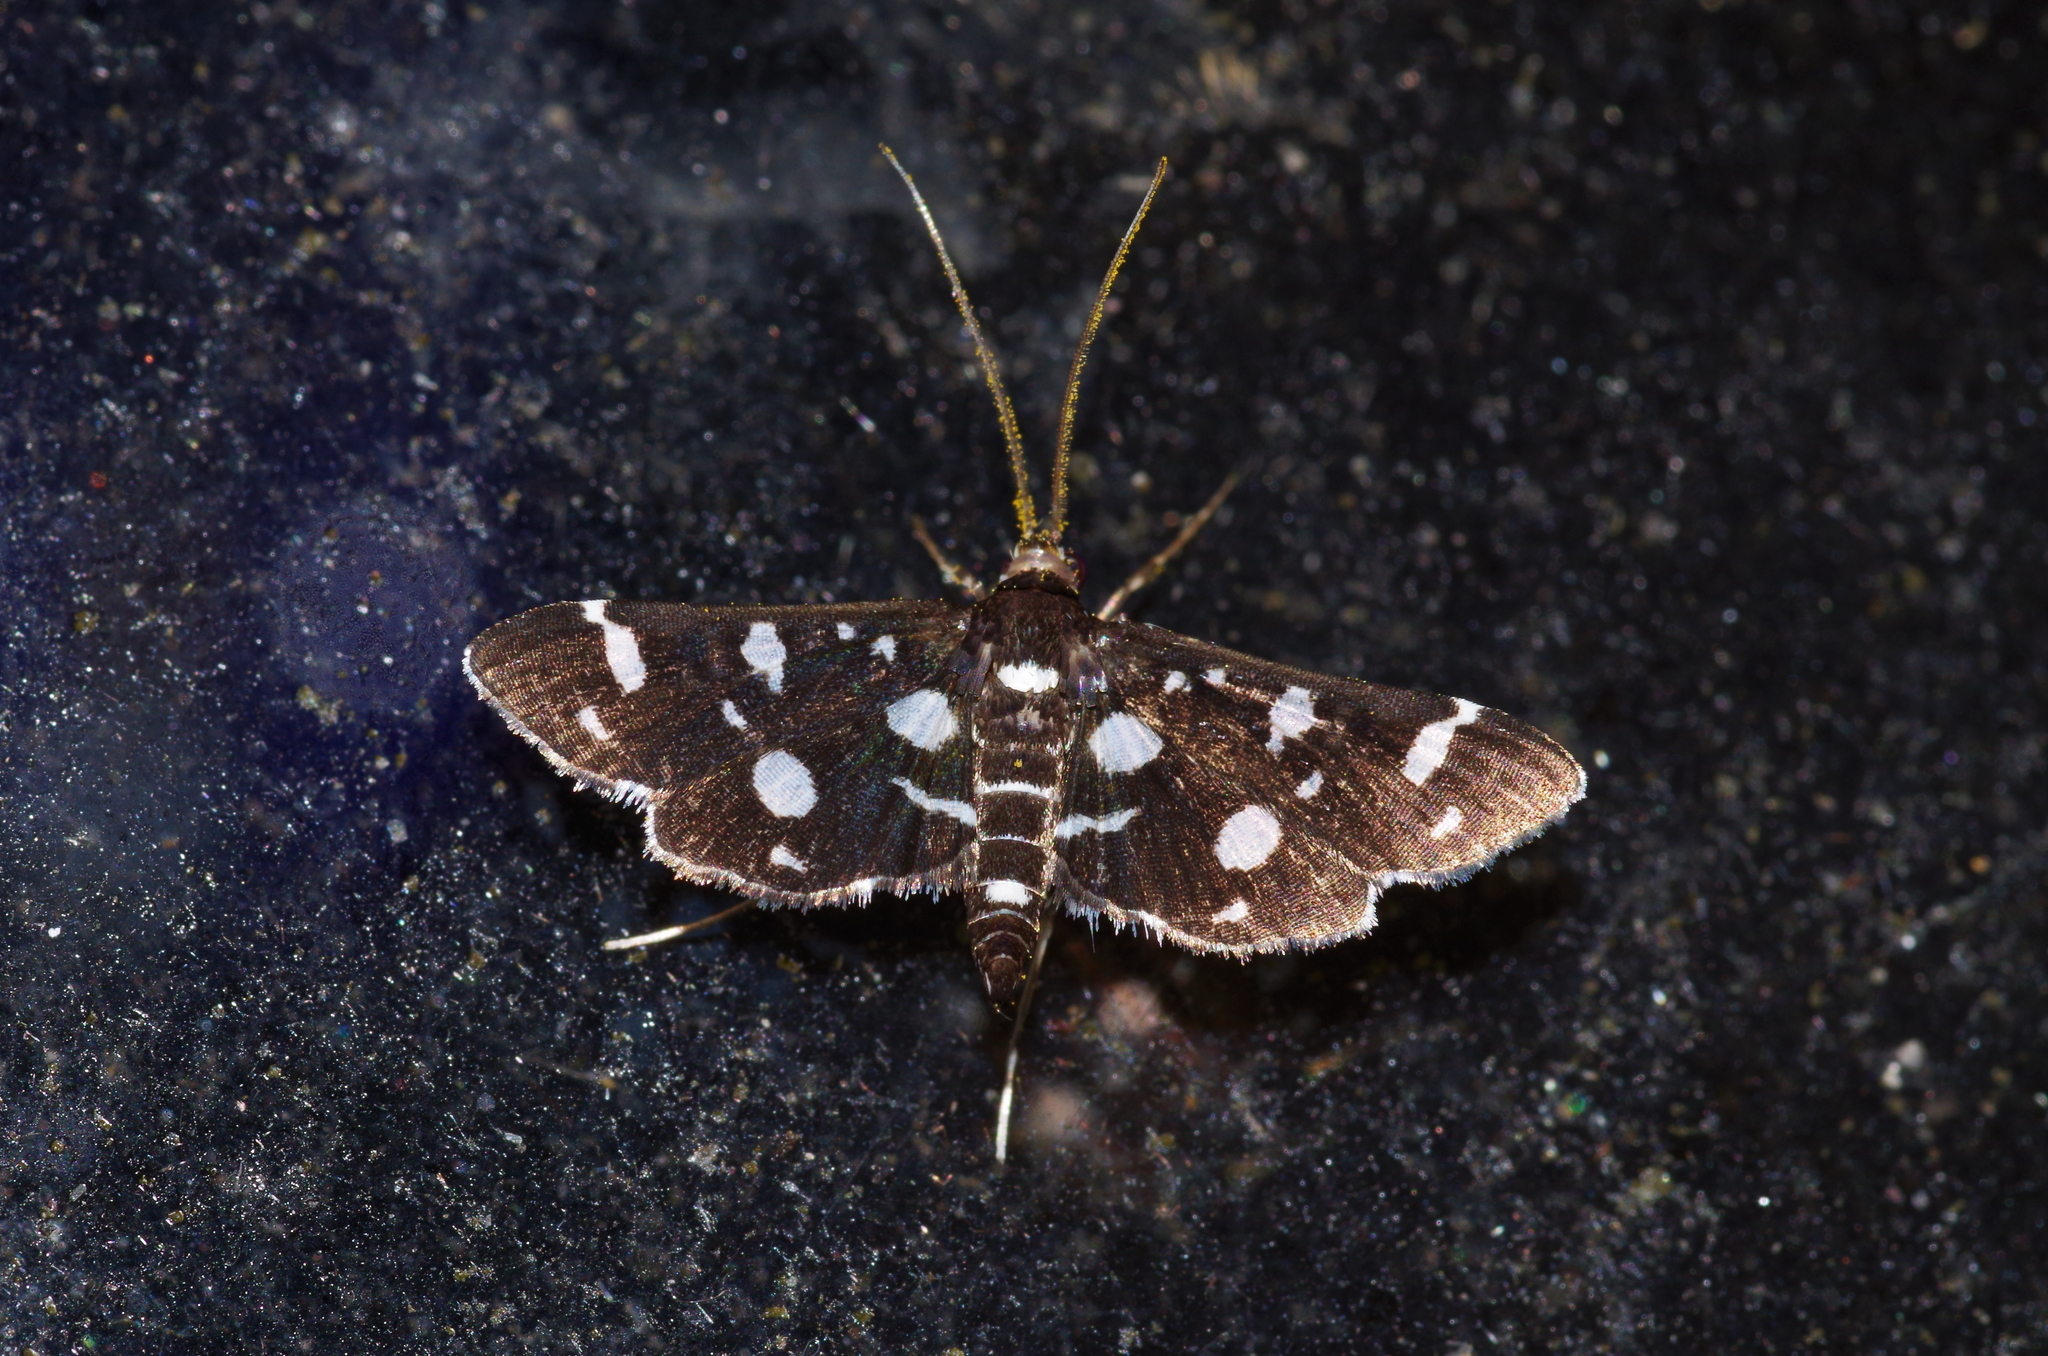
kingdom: Animalia
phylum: Arthropoda
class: Insecta
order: Lepidoptera
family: Crambidae
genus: Bocchoris
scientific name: Bocchoris inspersalis
